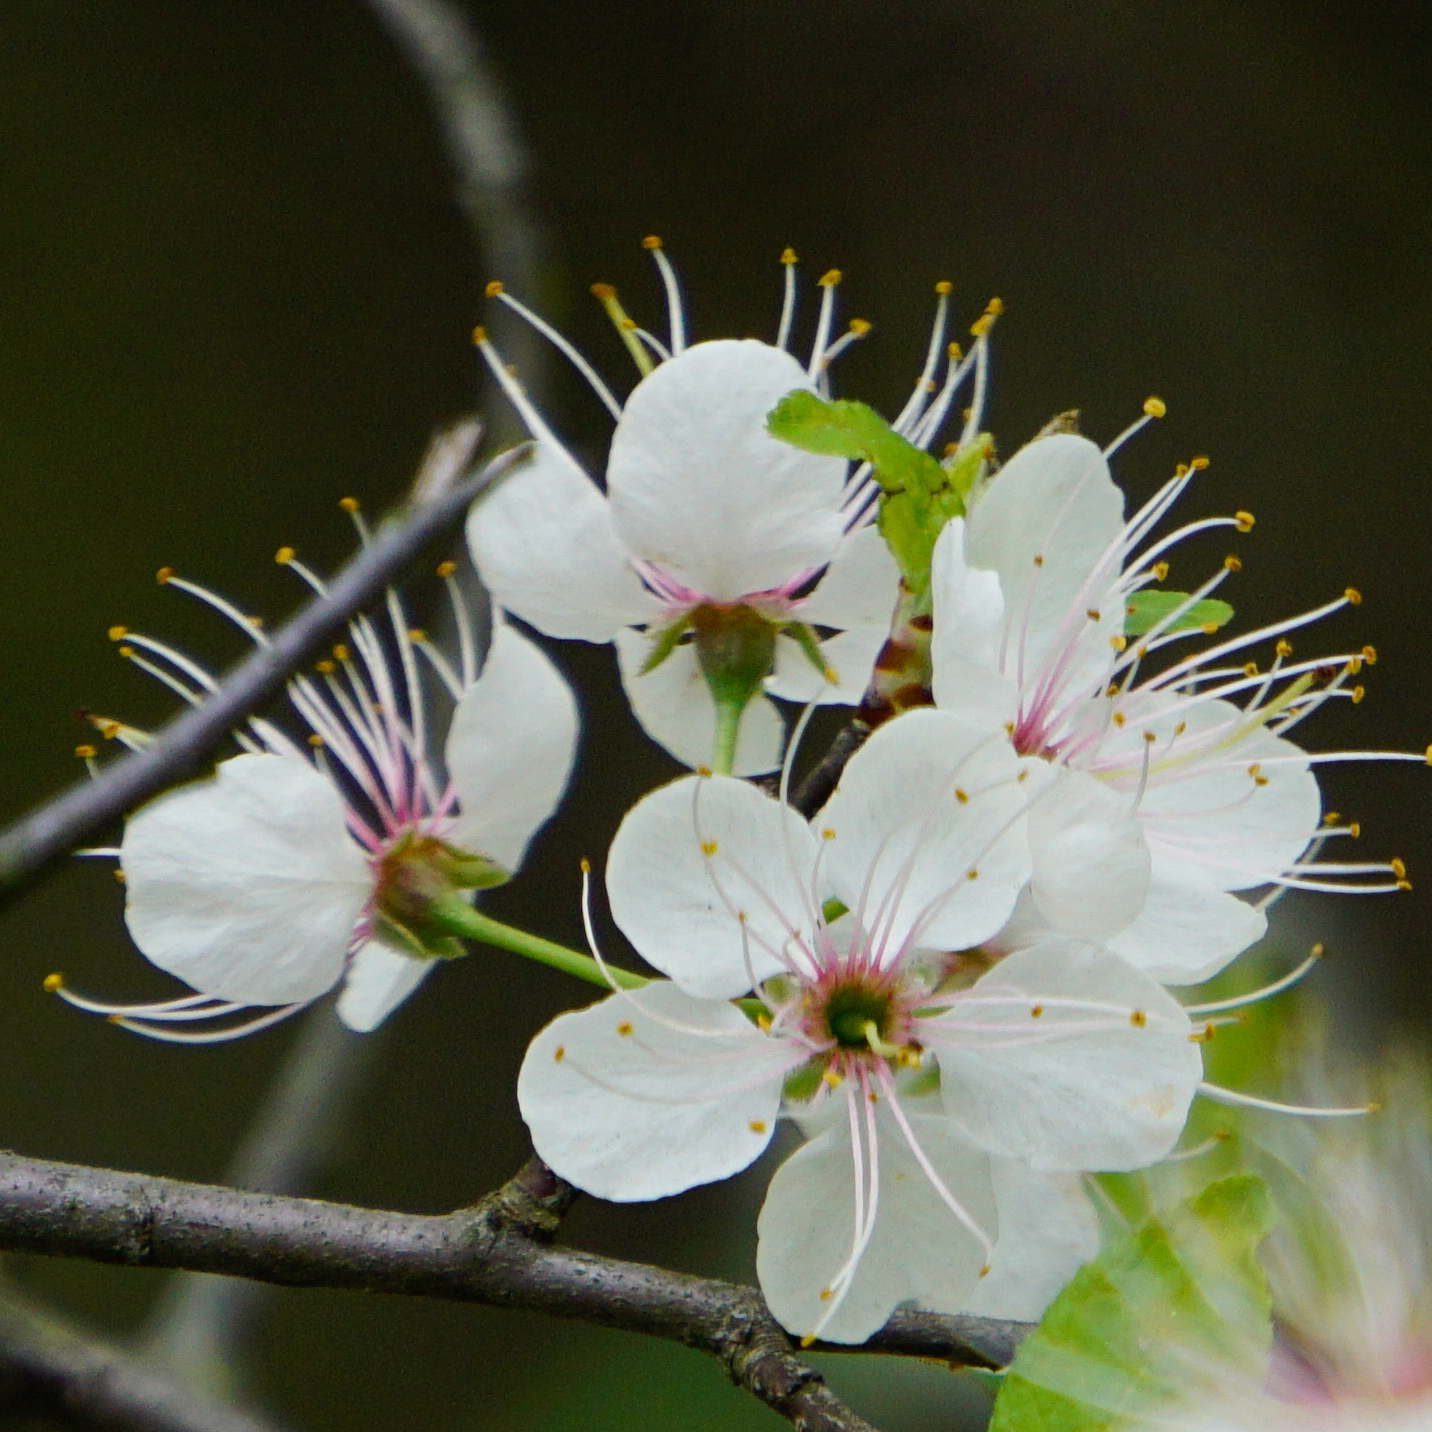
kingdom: Plantae
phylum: Tracheophyta
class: Magnoliopsida
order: Rosales
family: Rosaceae
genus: Prunus
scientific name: Prunus mexicana
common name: Mexican plum
